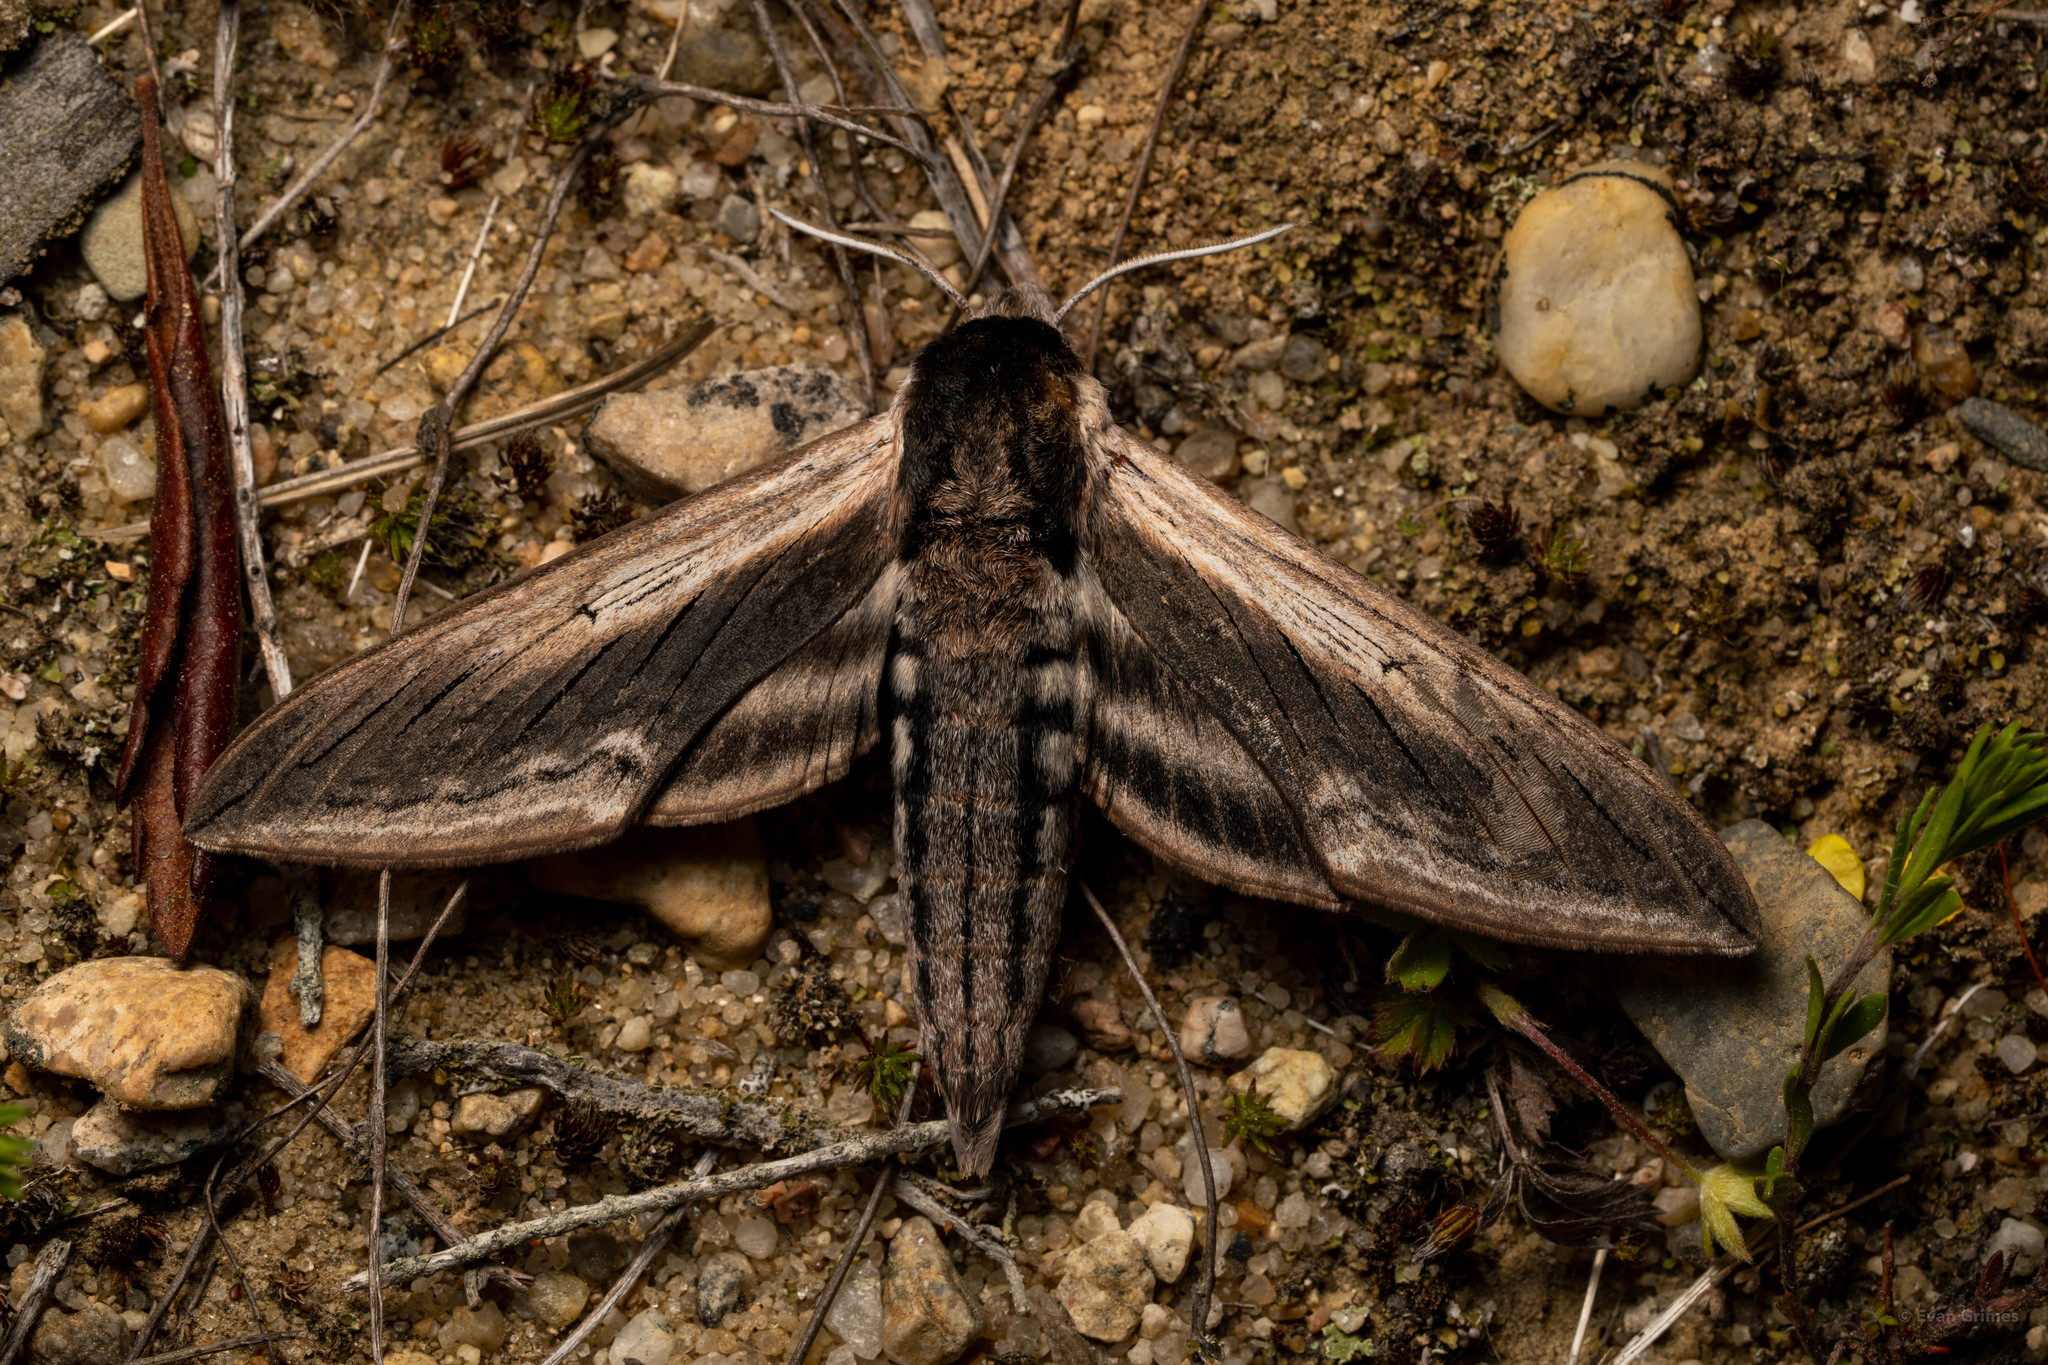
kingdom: Animalia
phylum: Arthropoda
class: Insecta
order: Lepidoptera
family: Sphingidae
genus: Sphinx
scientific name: Sphinx drupiferarum
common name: Wild cherry sphinx
